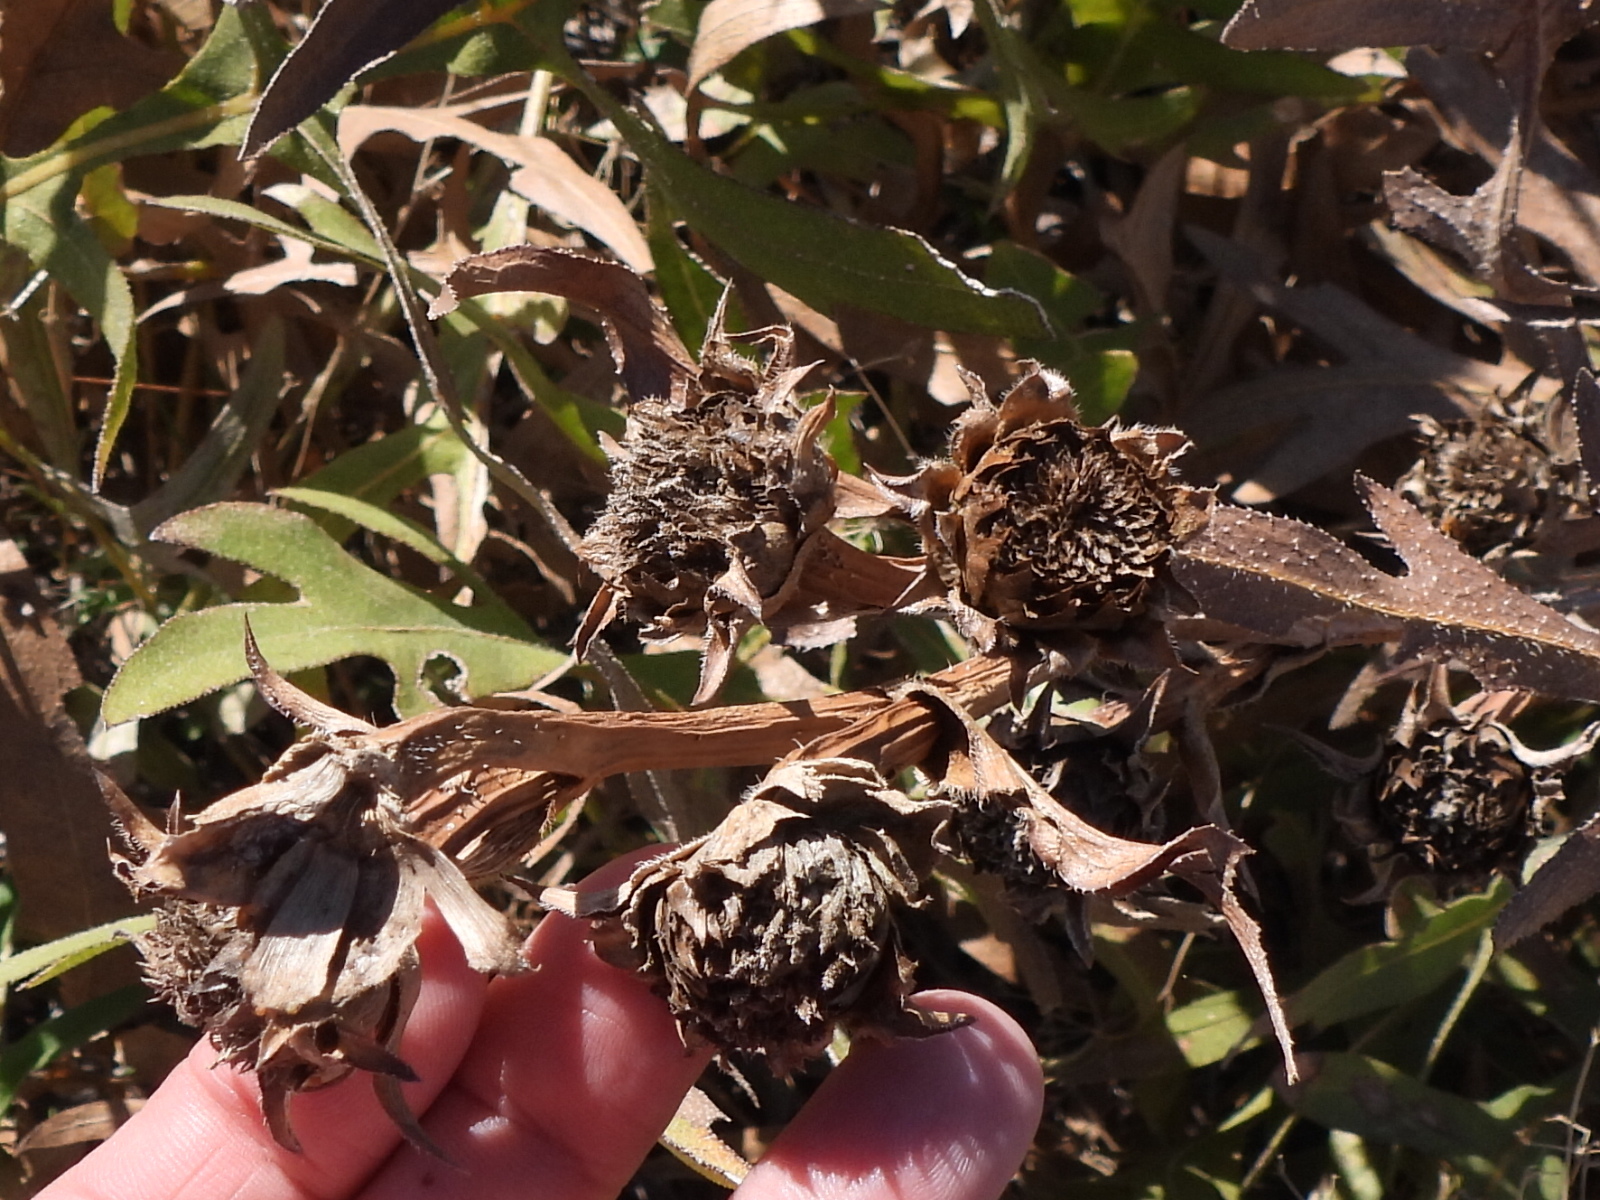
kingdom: Plantae
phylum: Tracheophyta
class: Magnoliopsida
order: Asterales
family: Asteraceae
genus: Silphium
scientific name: Silphium albiflorum
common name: White rosinweed
